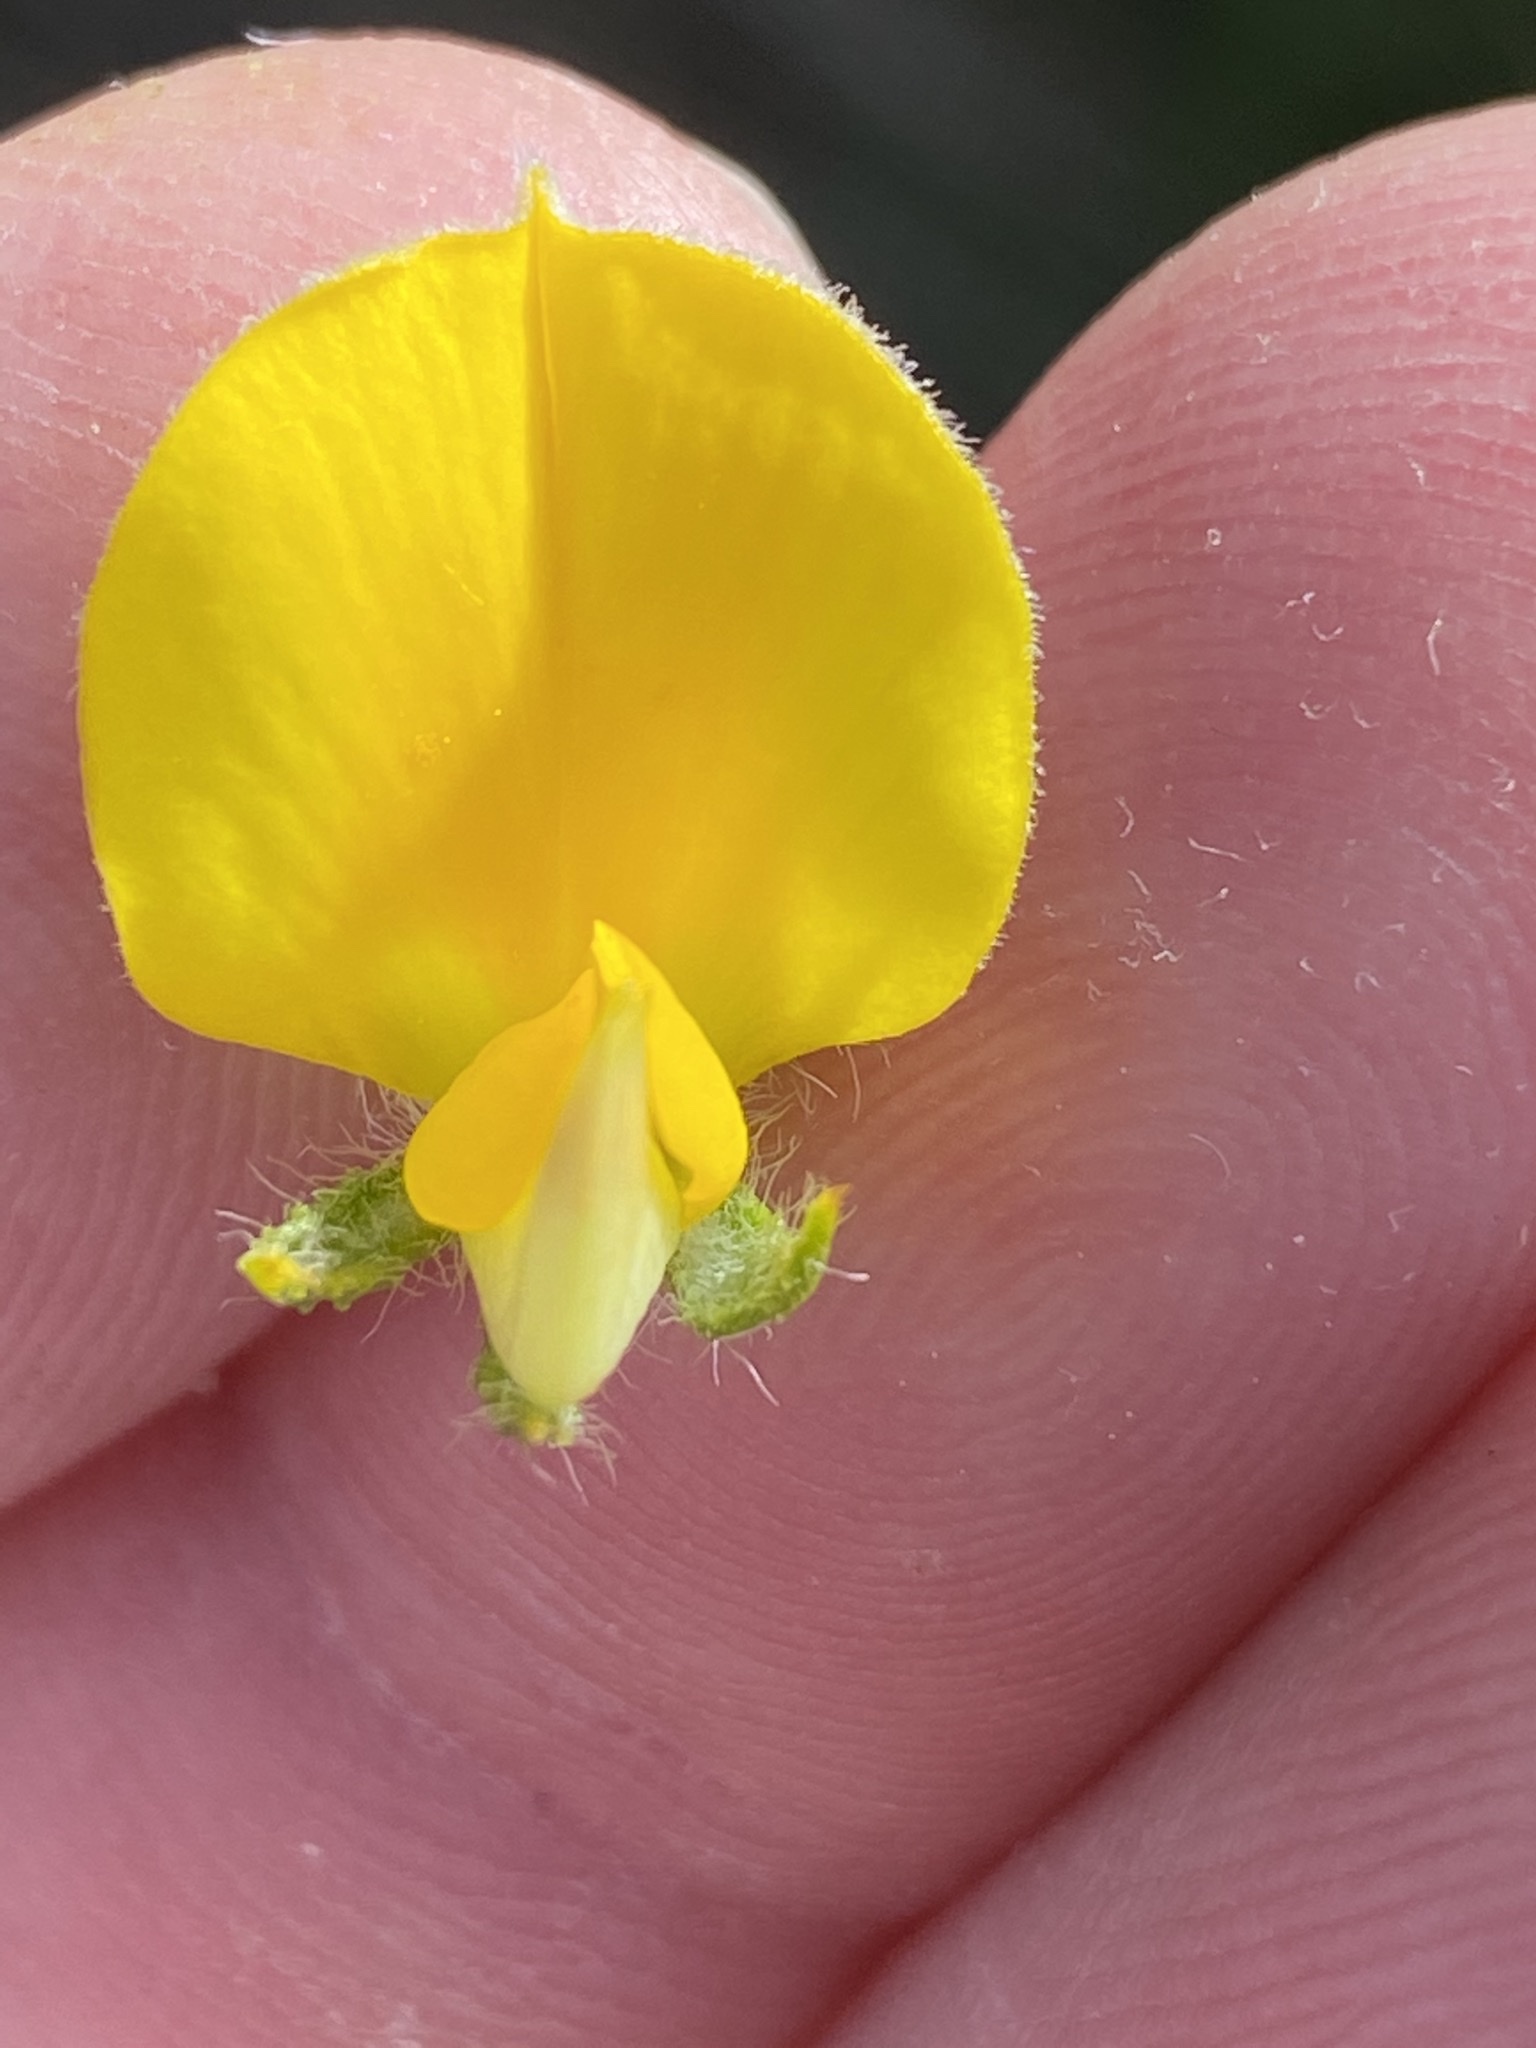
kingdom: Plantae
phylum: Tracheophyta
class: Magnoliopsida
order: Fabales
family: Fabaceae
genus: Aspalathus
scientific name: Aspalathus ciliaris
